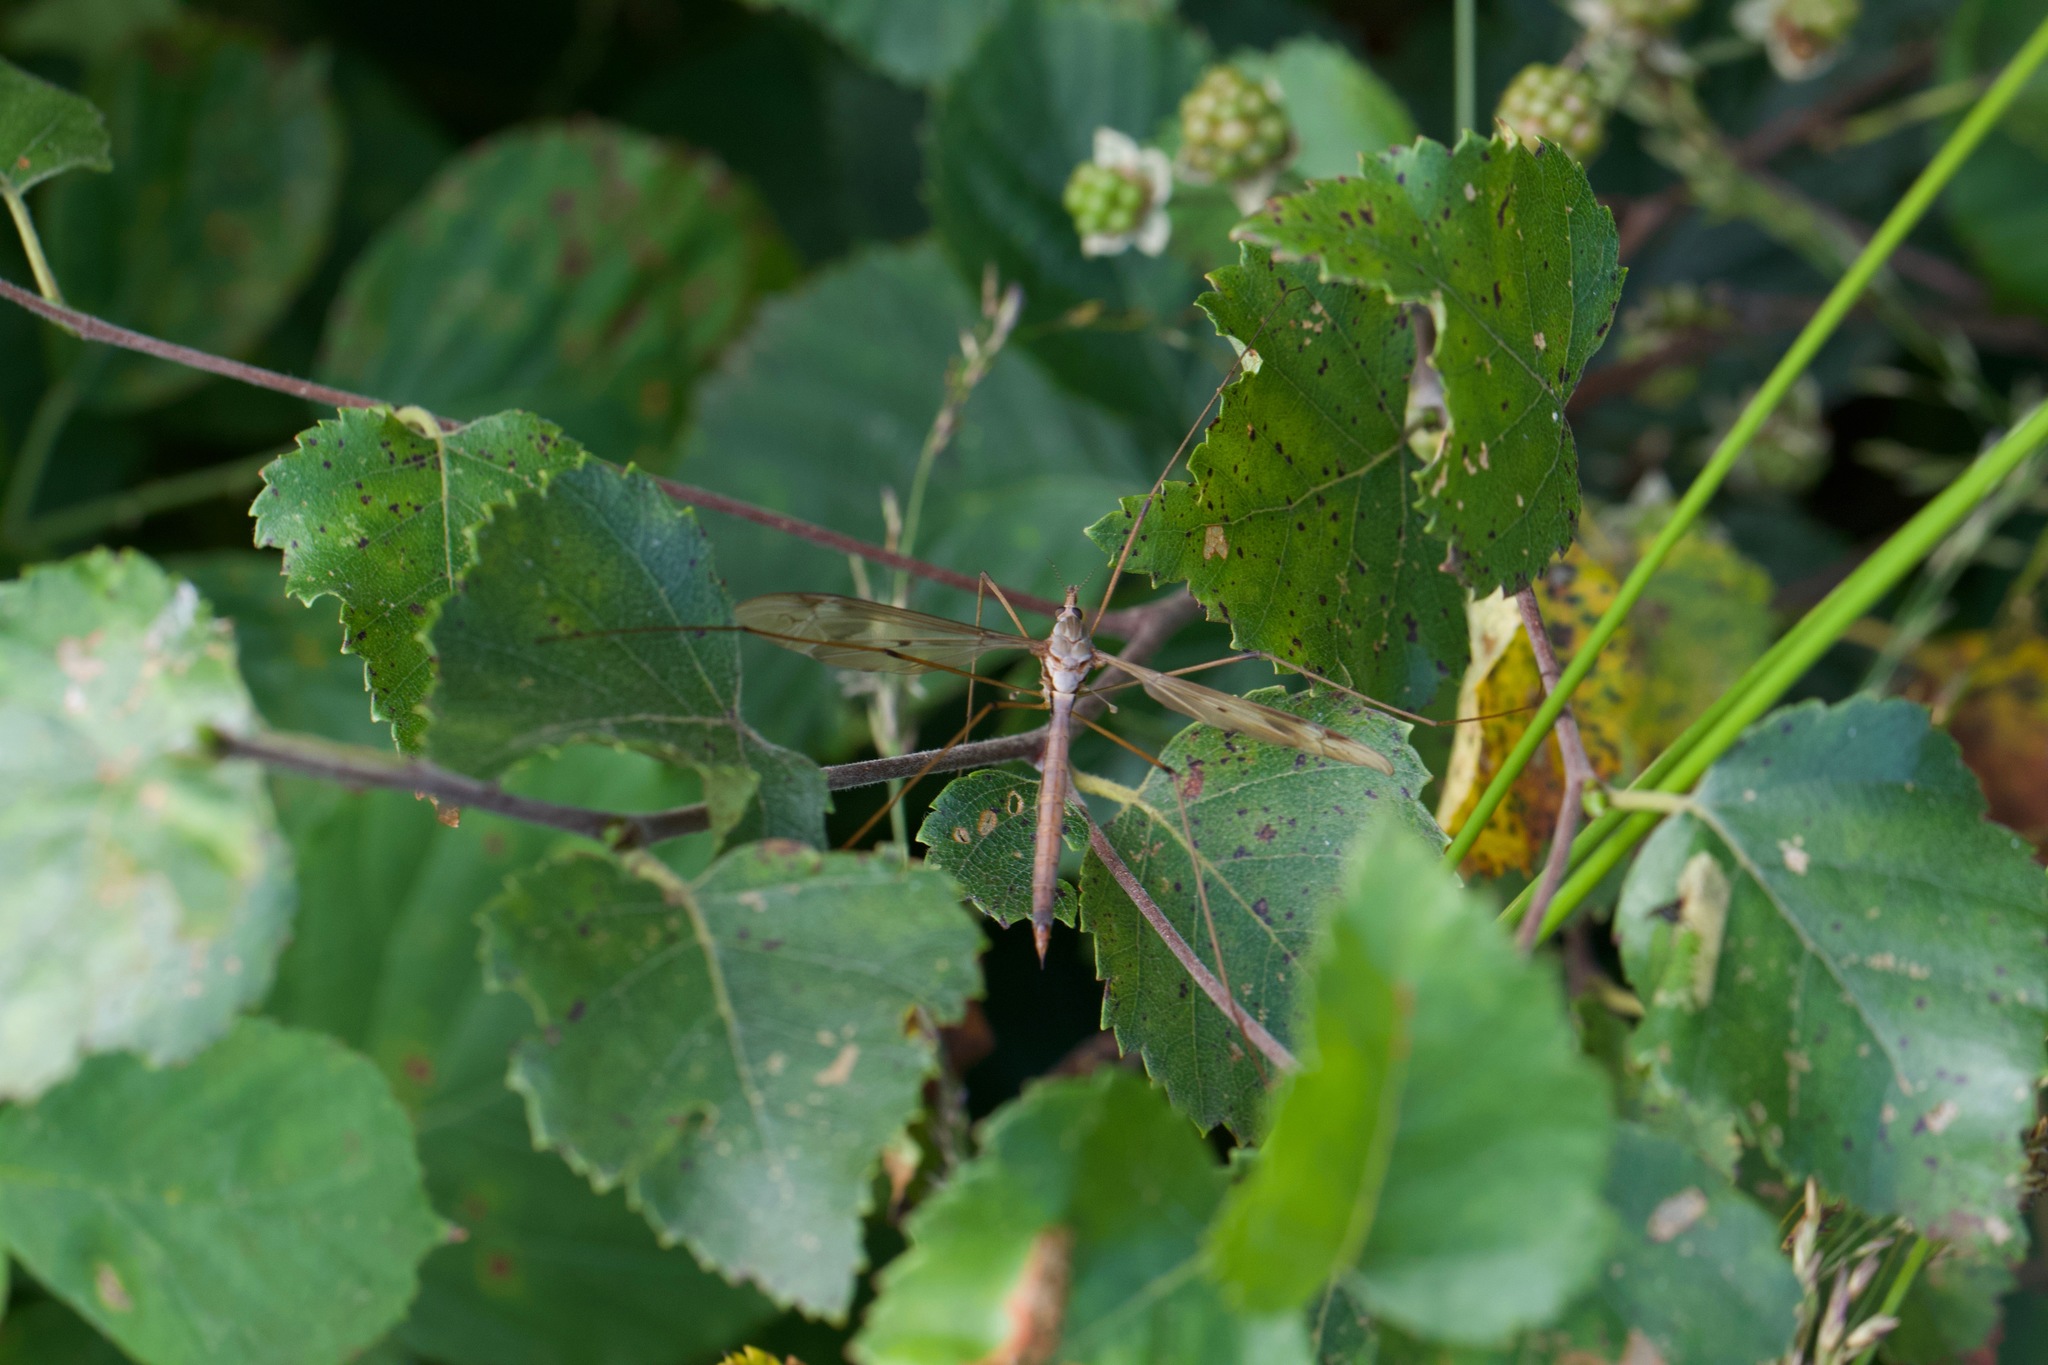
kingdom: Animalia
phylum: Arthropoda
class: Insecta
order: Diptera
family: Tipulidae
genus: Tipula
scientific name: Tipula fulvipennis
